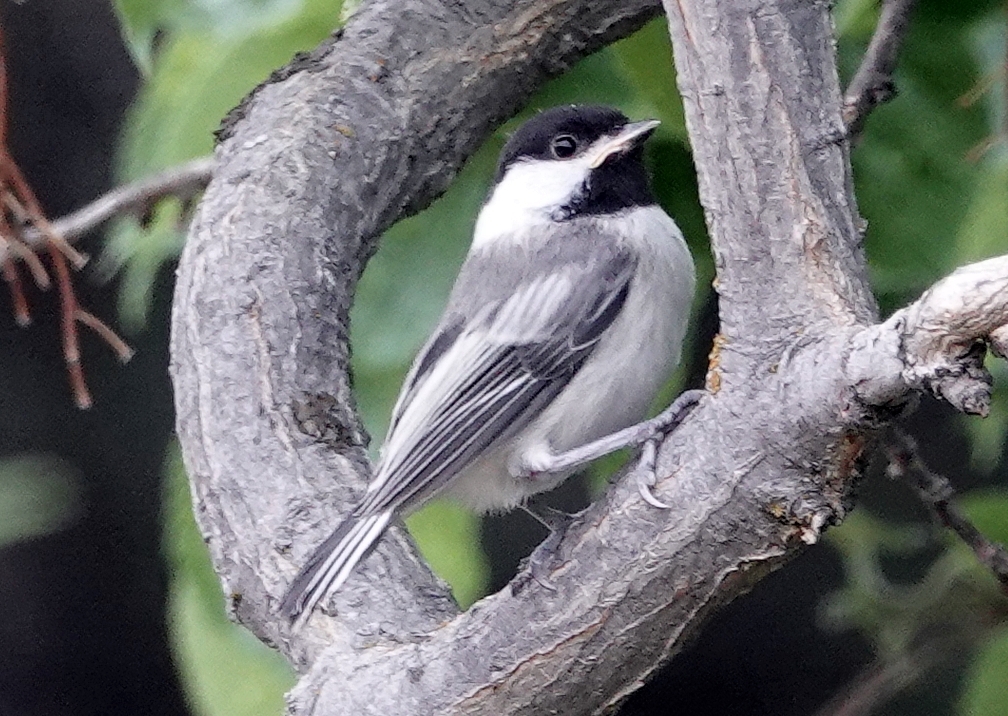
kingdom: Animalia
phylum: Chordata
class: Aves
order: Passeriformes
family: Paridae
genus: Poecile
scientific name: Poecile atricapillus
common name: Black-capped chickadee
